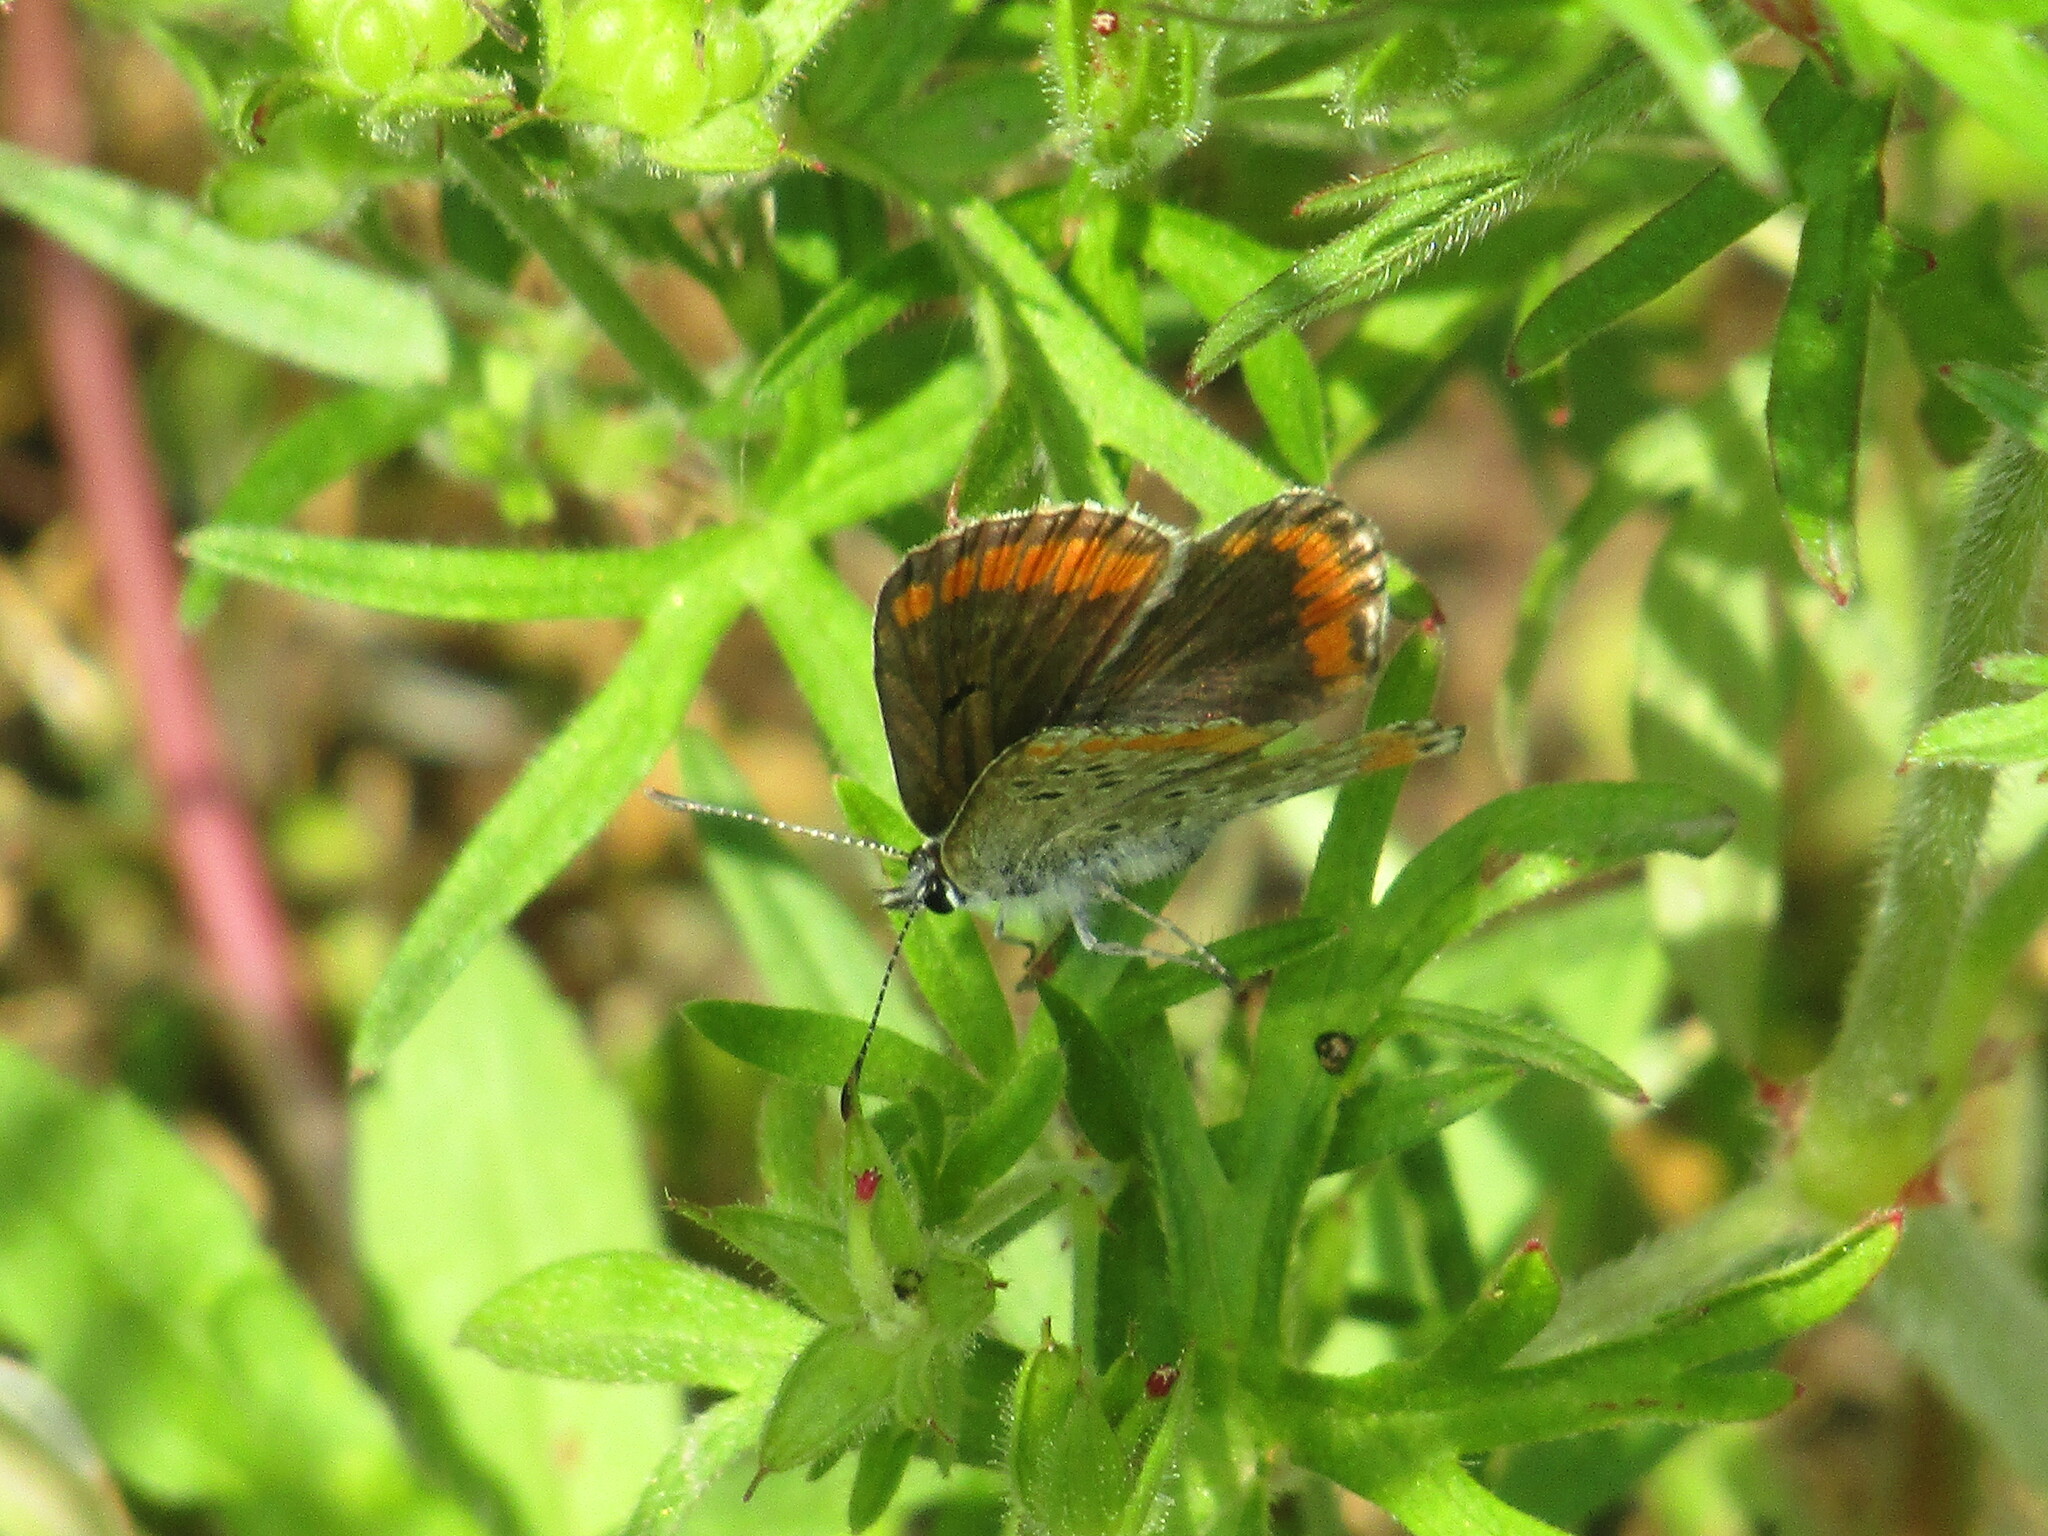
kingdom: Animalia
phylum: Arthropoda
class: Insecta
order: Lepidoptera
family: Lycaenidae
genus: Aricia
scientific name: Aricia agestis
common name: Brown argus
